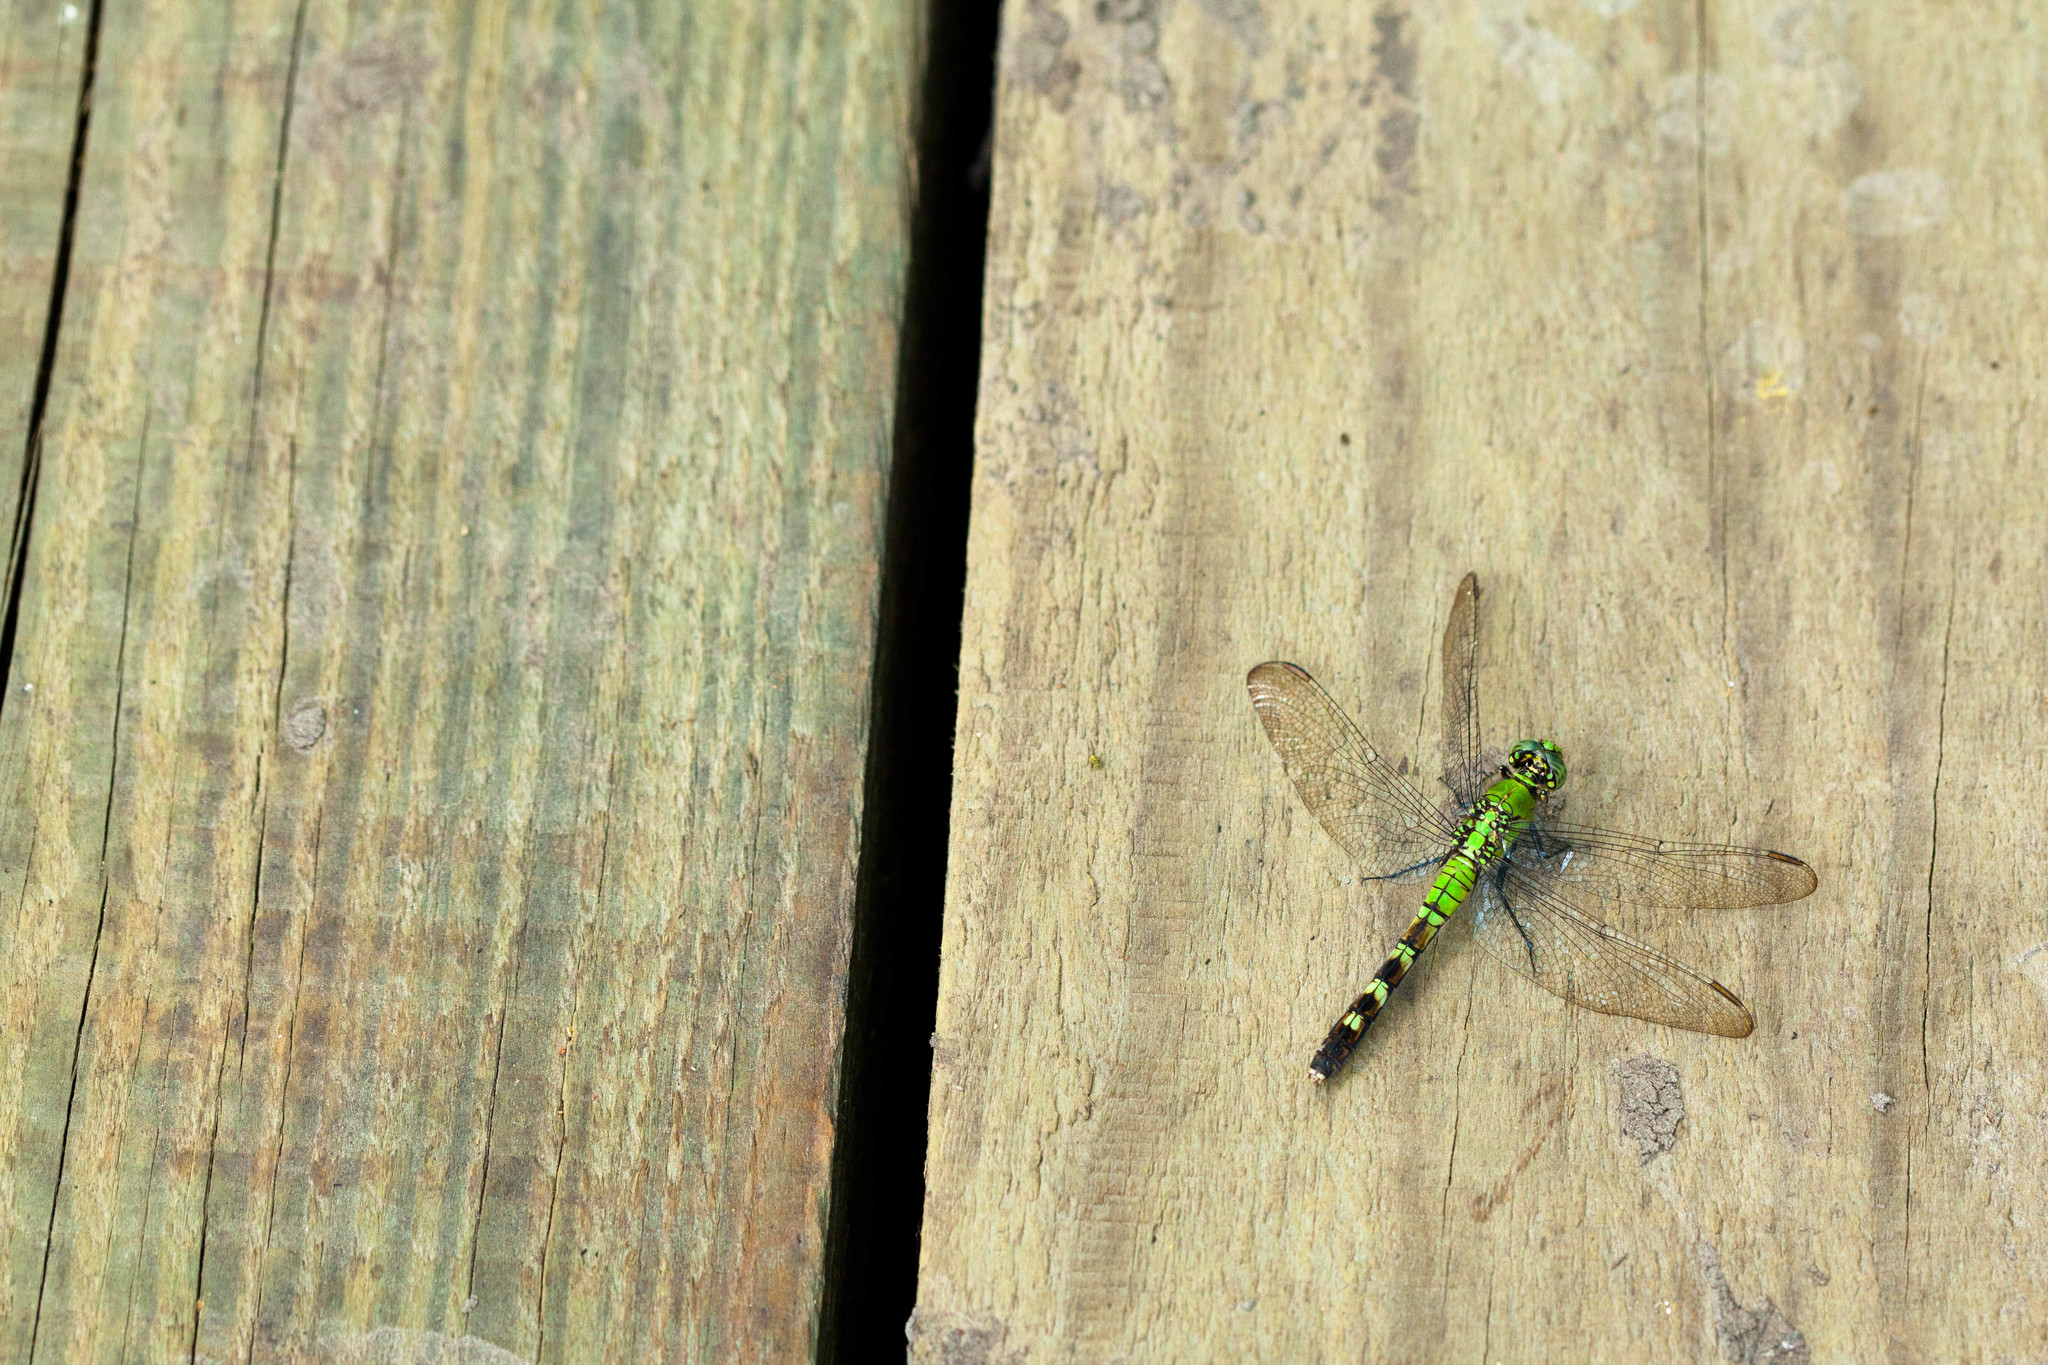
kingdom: Animalia
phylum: Arthropoda
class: Insecta
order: Odonata
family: Libellulidae
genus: Erythemis
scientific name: Erythemis simplicicollis
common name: Eastern pondhawk
